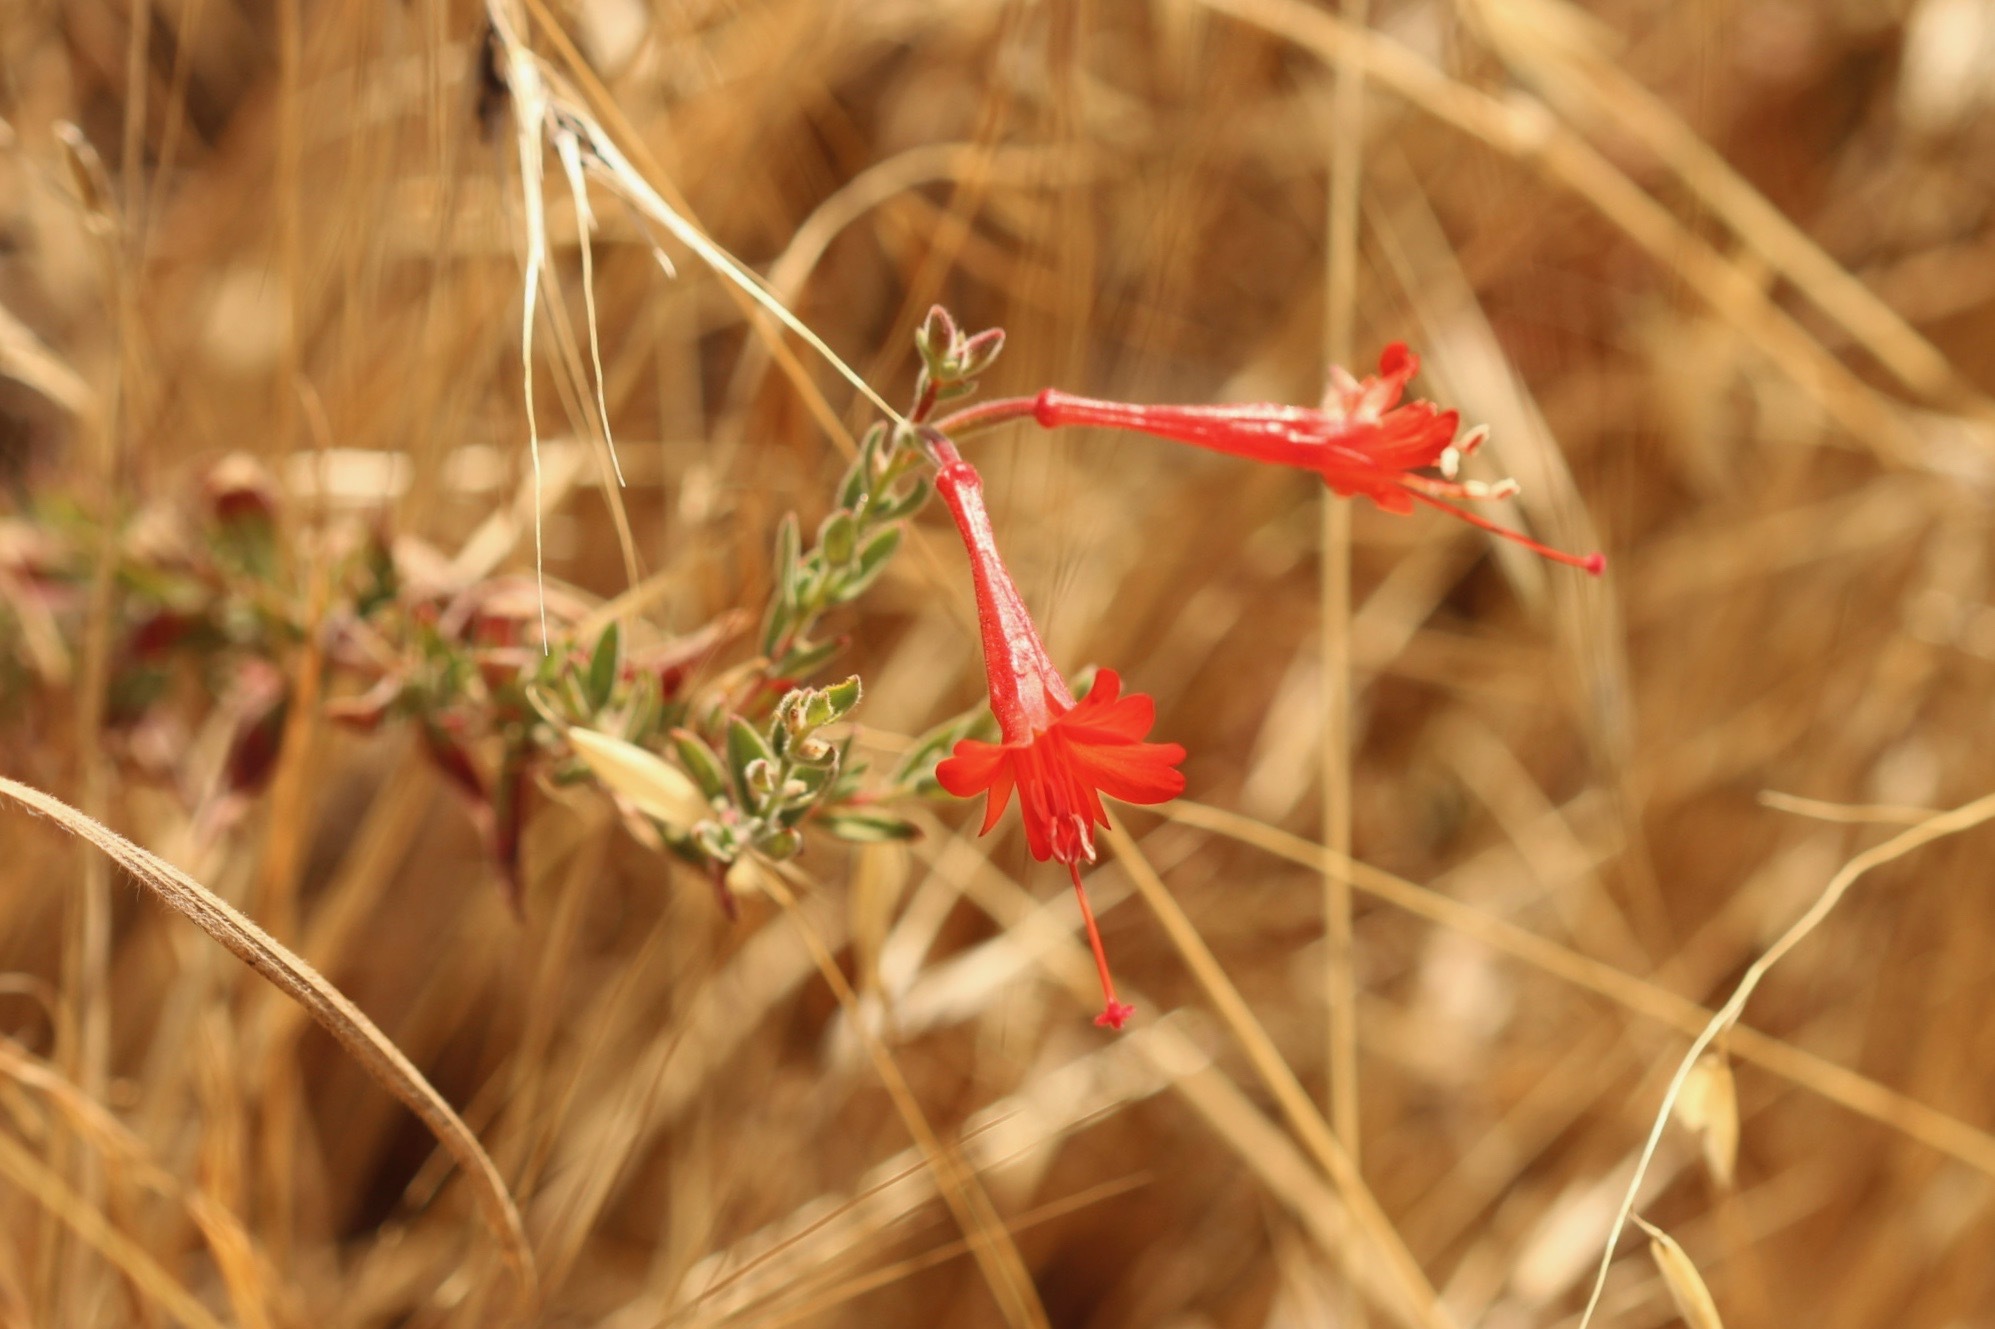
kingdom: Plantae
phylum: Tracheophyta
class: Magnoliopsida
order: Myrtales
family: Onagraceae
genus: Epilobium
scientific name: Epilobium canum
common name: California-fuchsia
